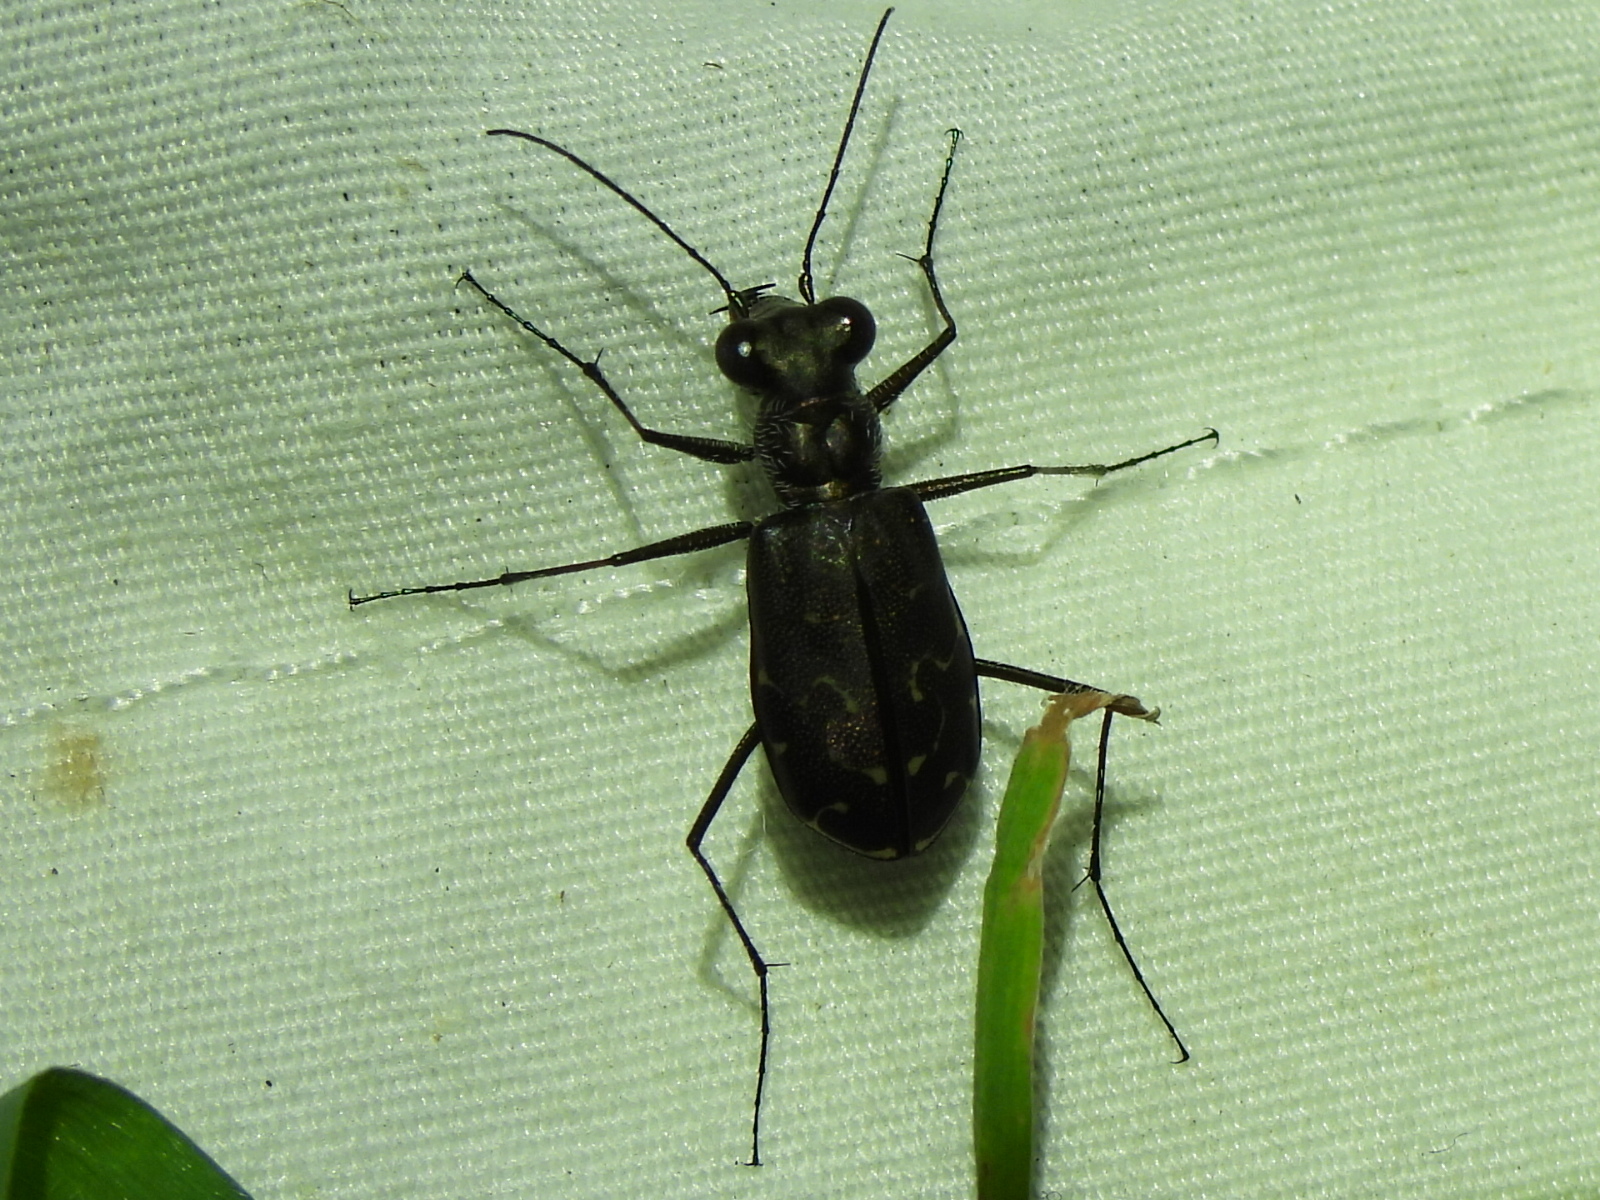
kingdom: Animalia
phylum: Arthropoda
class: Insecta
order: Coleoptera
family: Carabidae
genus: Cicindela
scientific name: Cicindela trifasciata
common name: Mudflat tiger beetle
